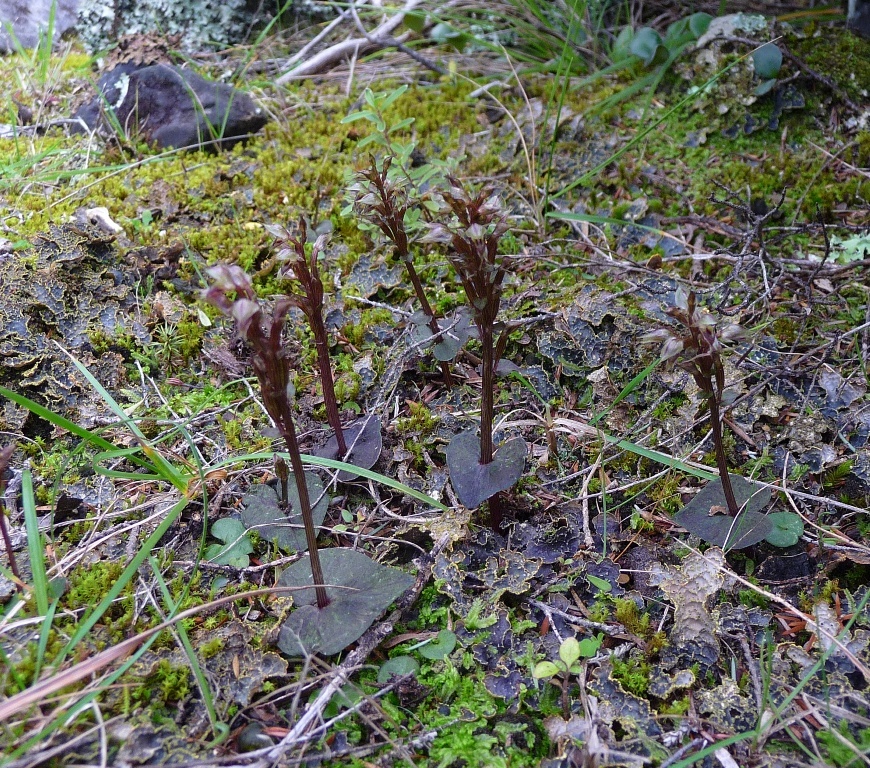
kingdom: Plantae
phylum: Tracheophyta
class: Liliopsida
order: Asparagales
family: Orchidaceae
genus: Acianthus
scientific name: Acianthus sinclairii
